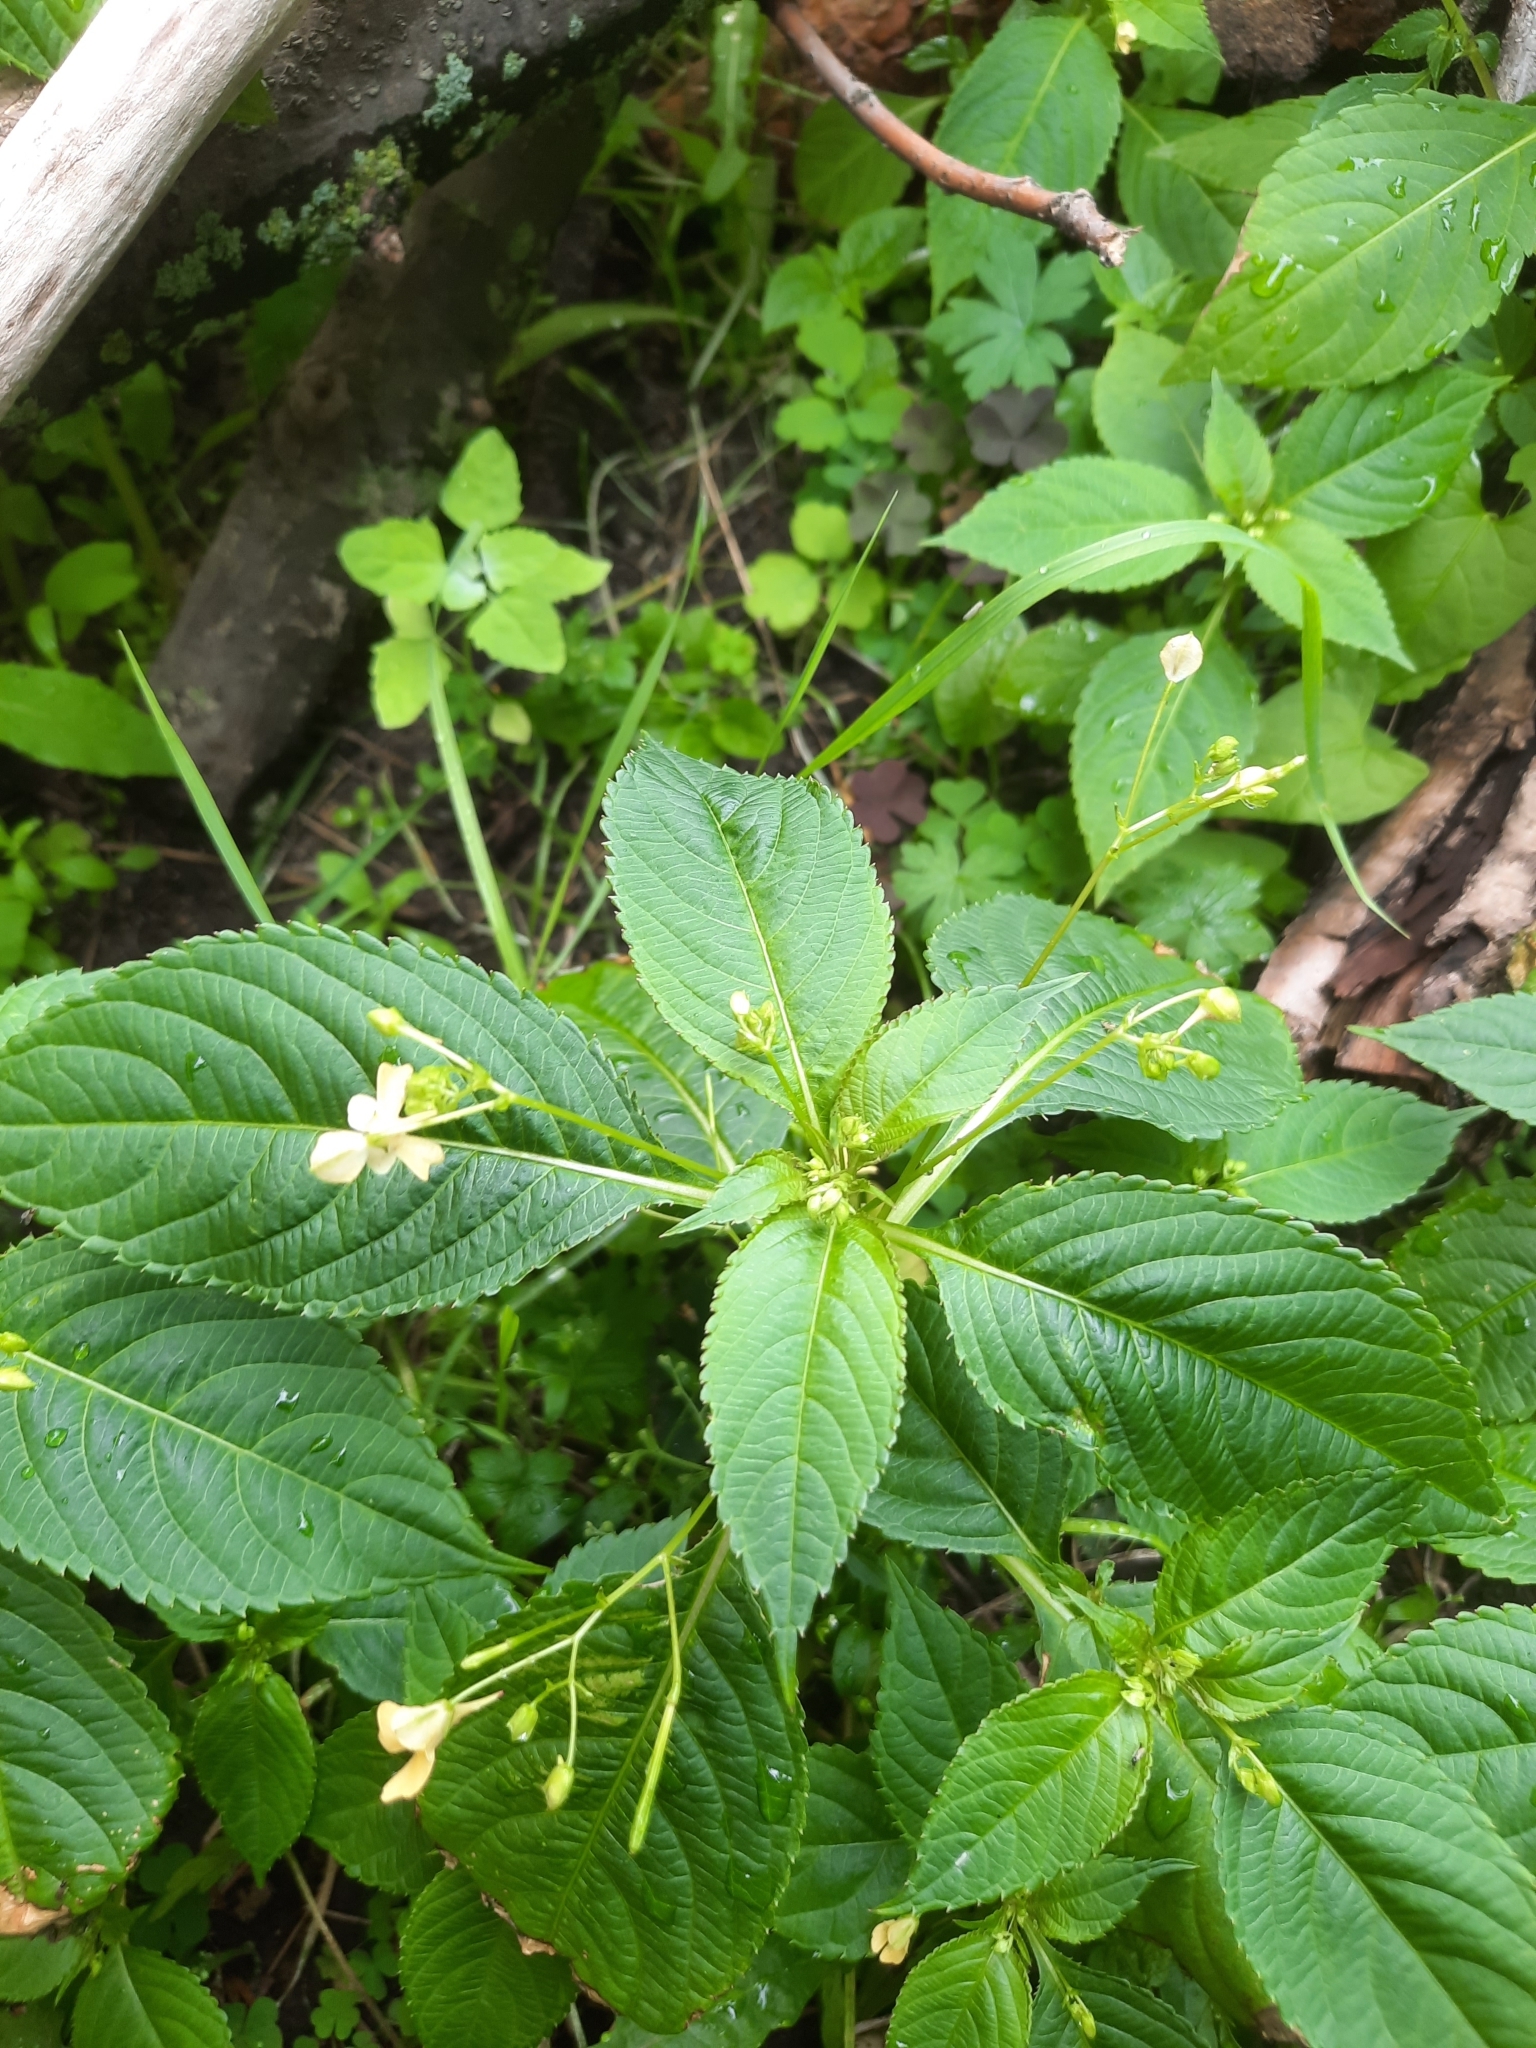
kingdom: Plantae
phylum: Tracheophyta
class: Magnoliopsida
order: Ericales
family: Balsaminaceae
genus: Impatiens
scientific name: Impatiens parviflora
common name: Small balsam
